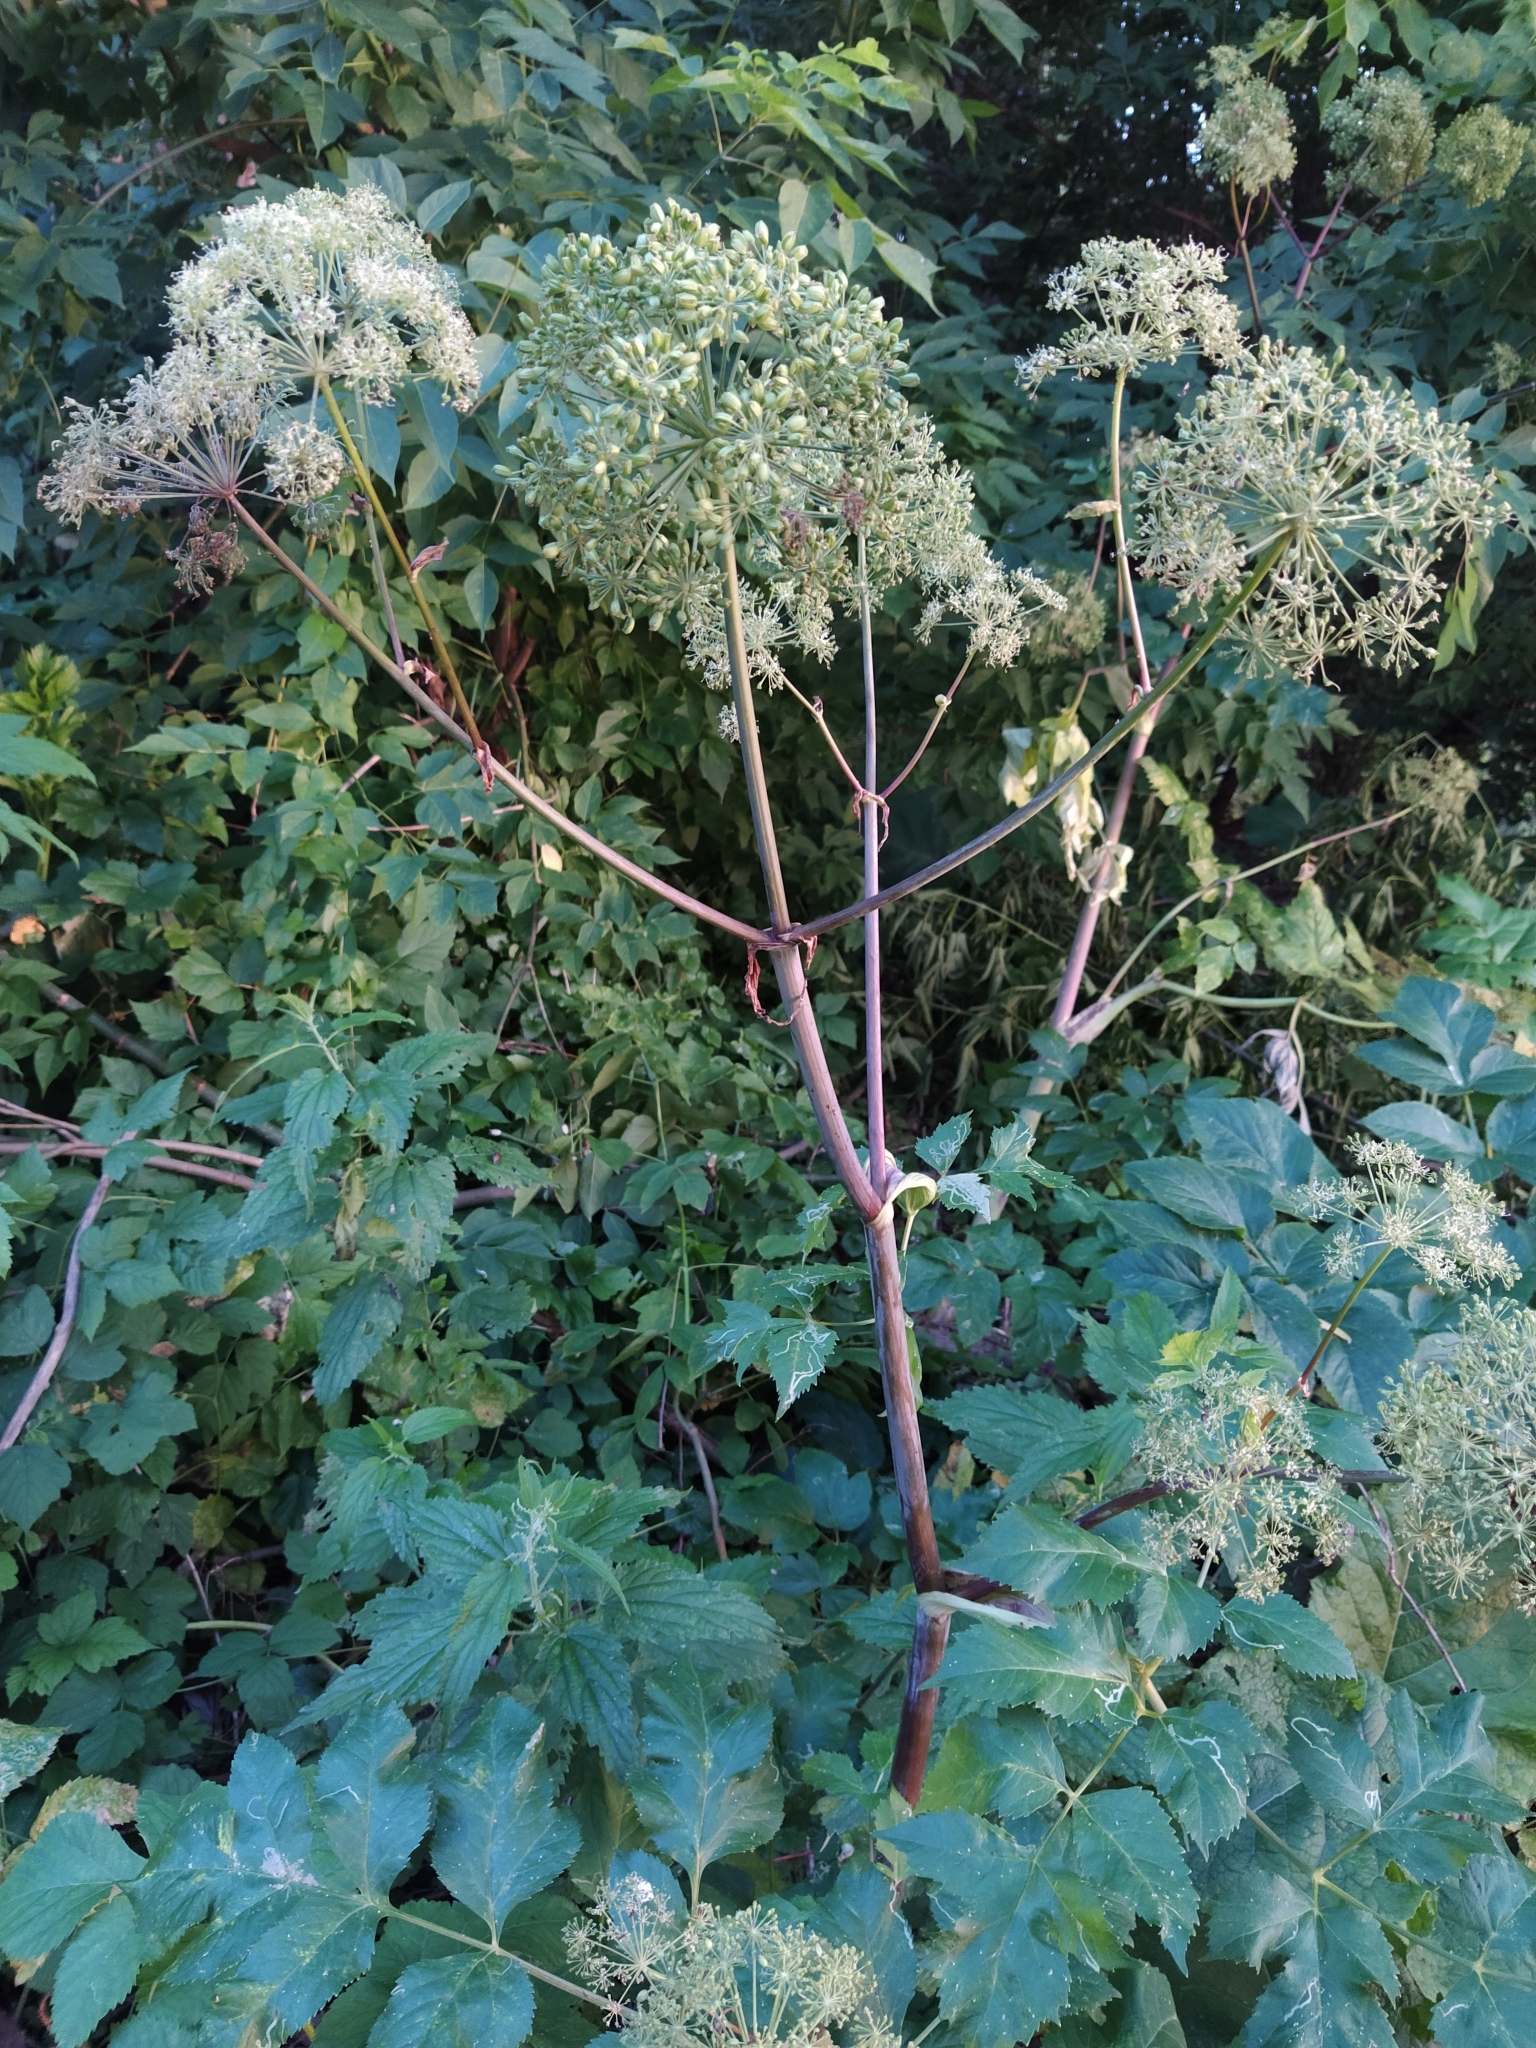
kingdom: Plantae
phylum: Tracheophyta
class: Magnoliopsida
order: Apiales
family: Apiaceae
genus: Angelica
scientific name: Angelica archangelica
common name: Garden angelica
